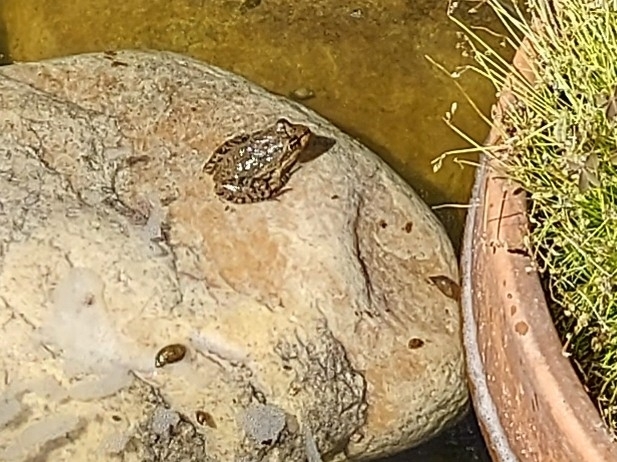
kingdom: Animalia
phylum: Chordata
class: Amphibia
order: Anura
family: Pyxicephalidae
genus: Amietia
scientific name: Amietia fuscigula
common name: Cape rana
